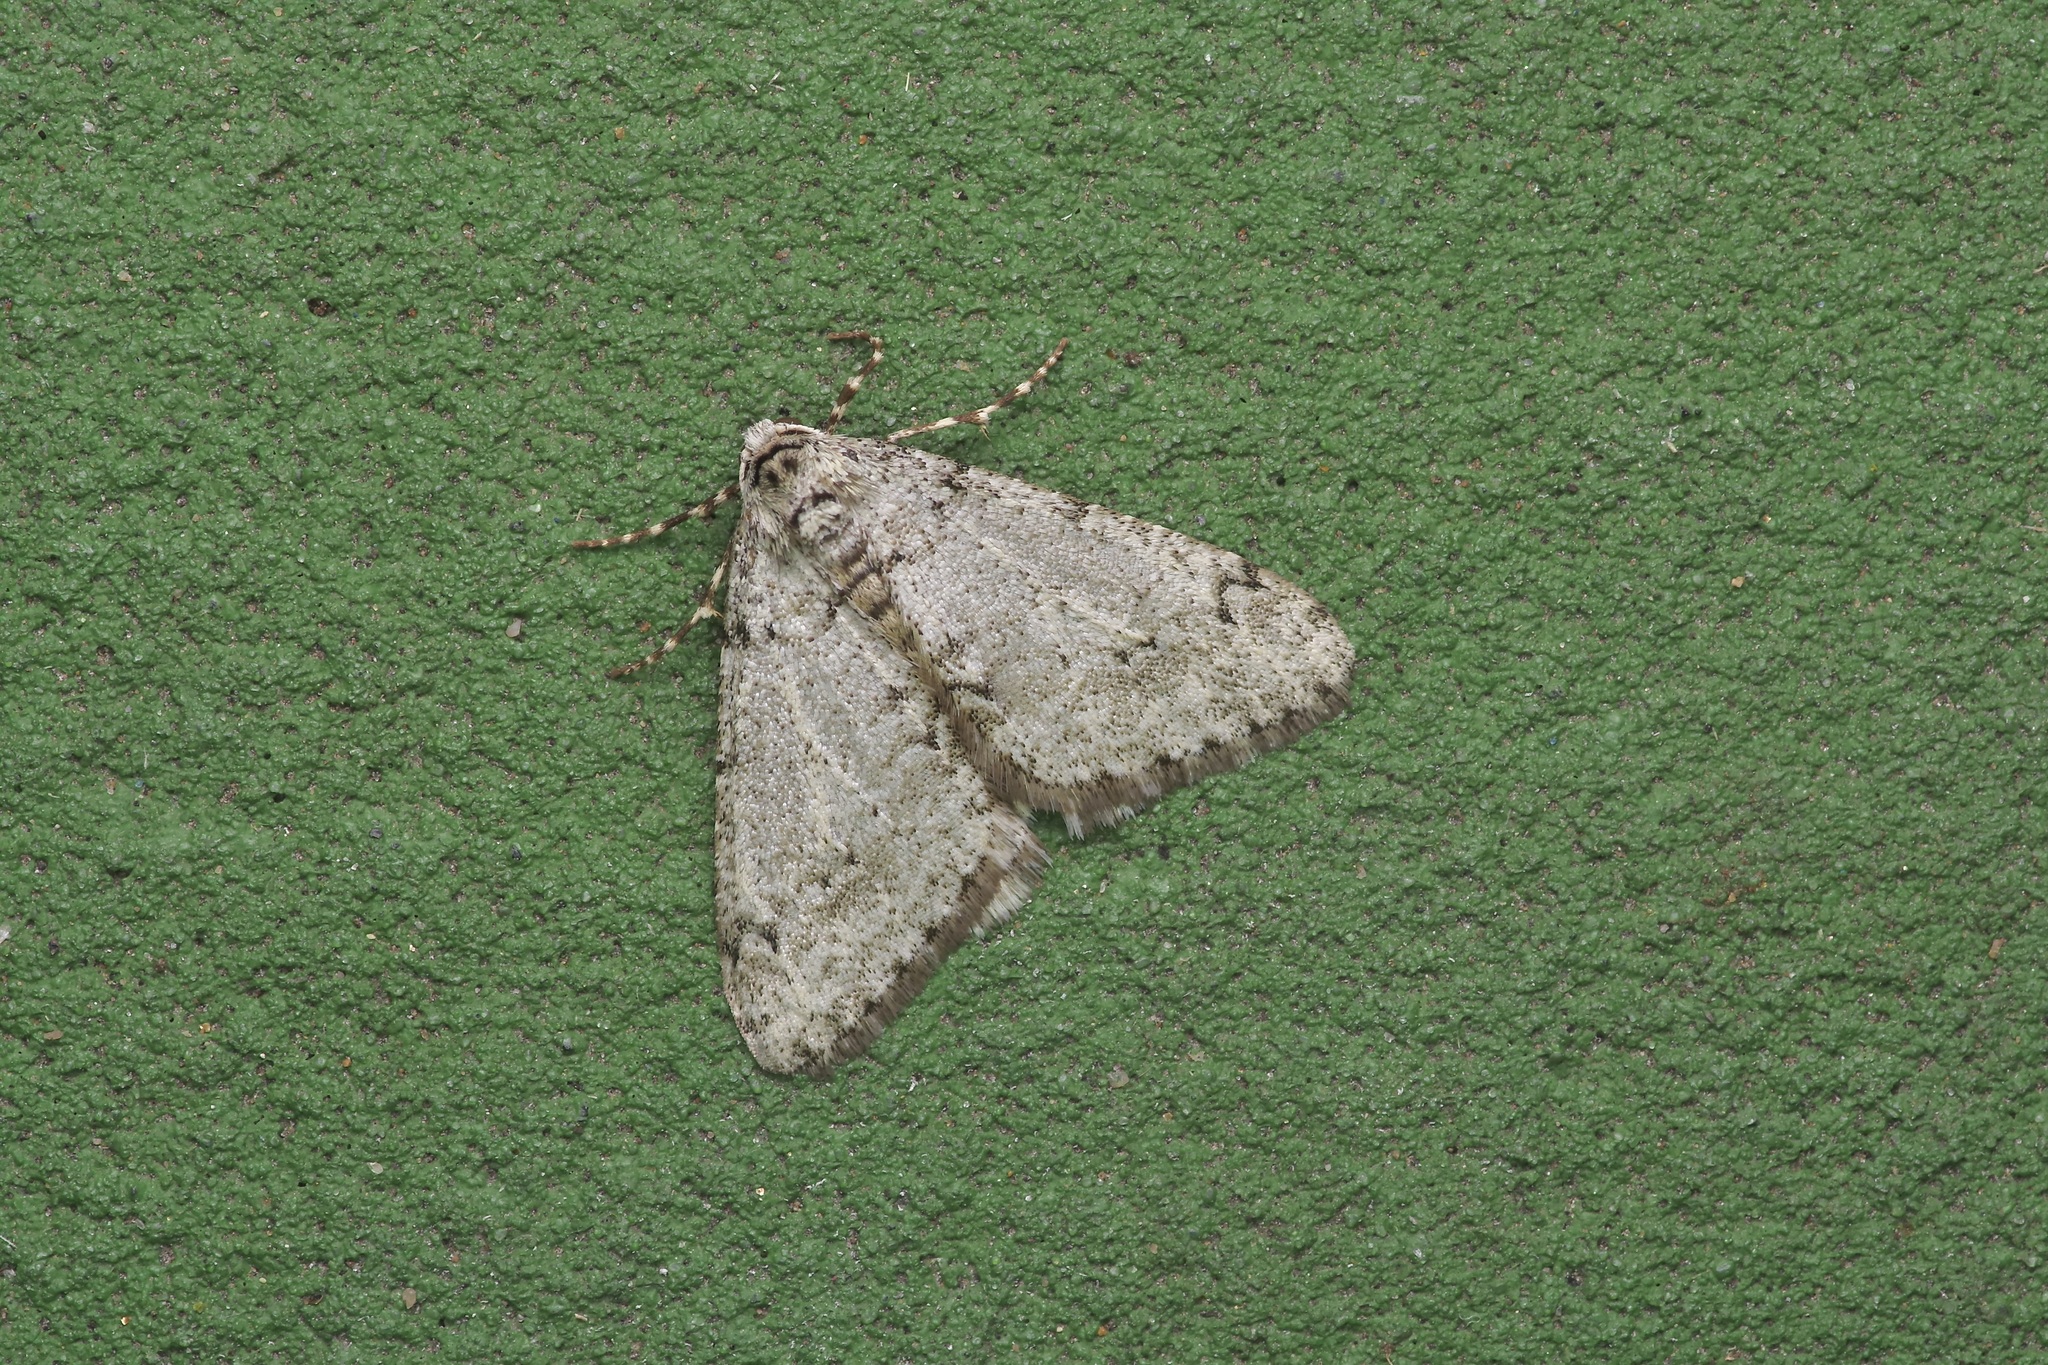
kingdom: Animalia
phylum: Arthropoda
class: Insecta
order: Lepidoptera
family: Geometridae
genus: Phigalia
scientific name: Phigalia strigataria
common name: Small phigalia
